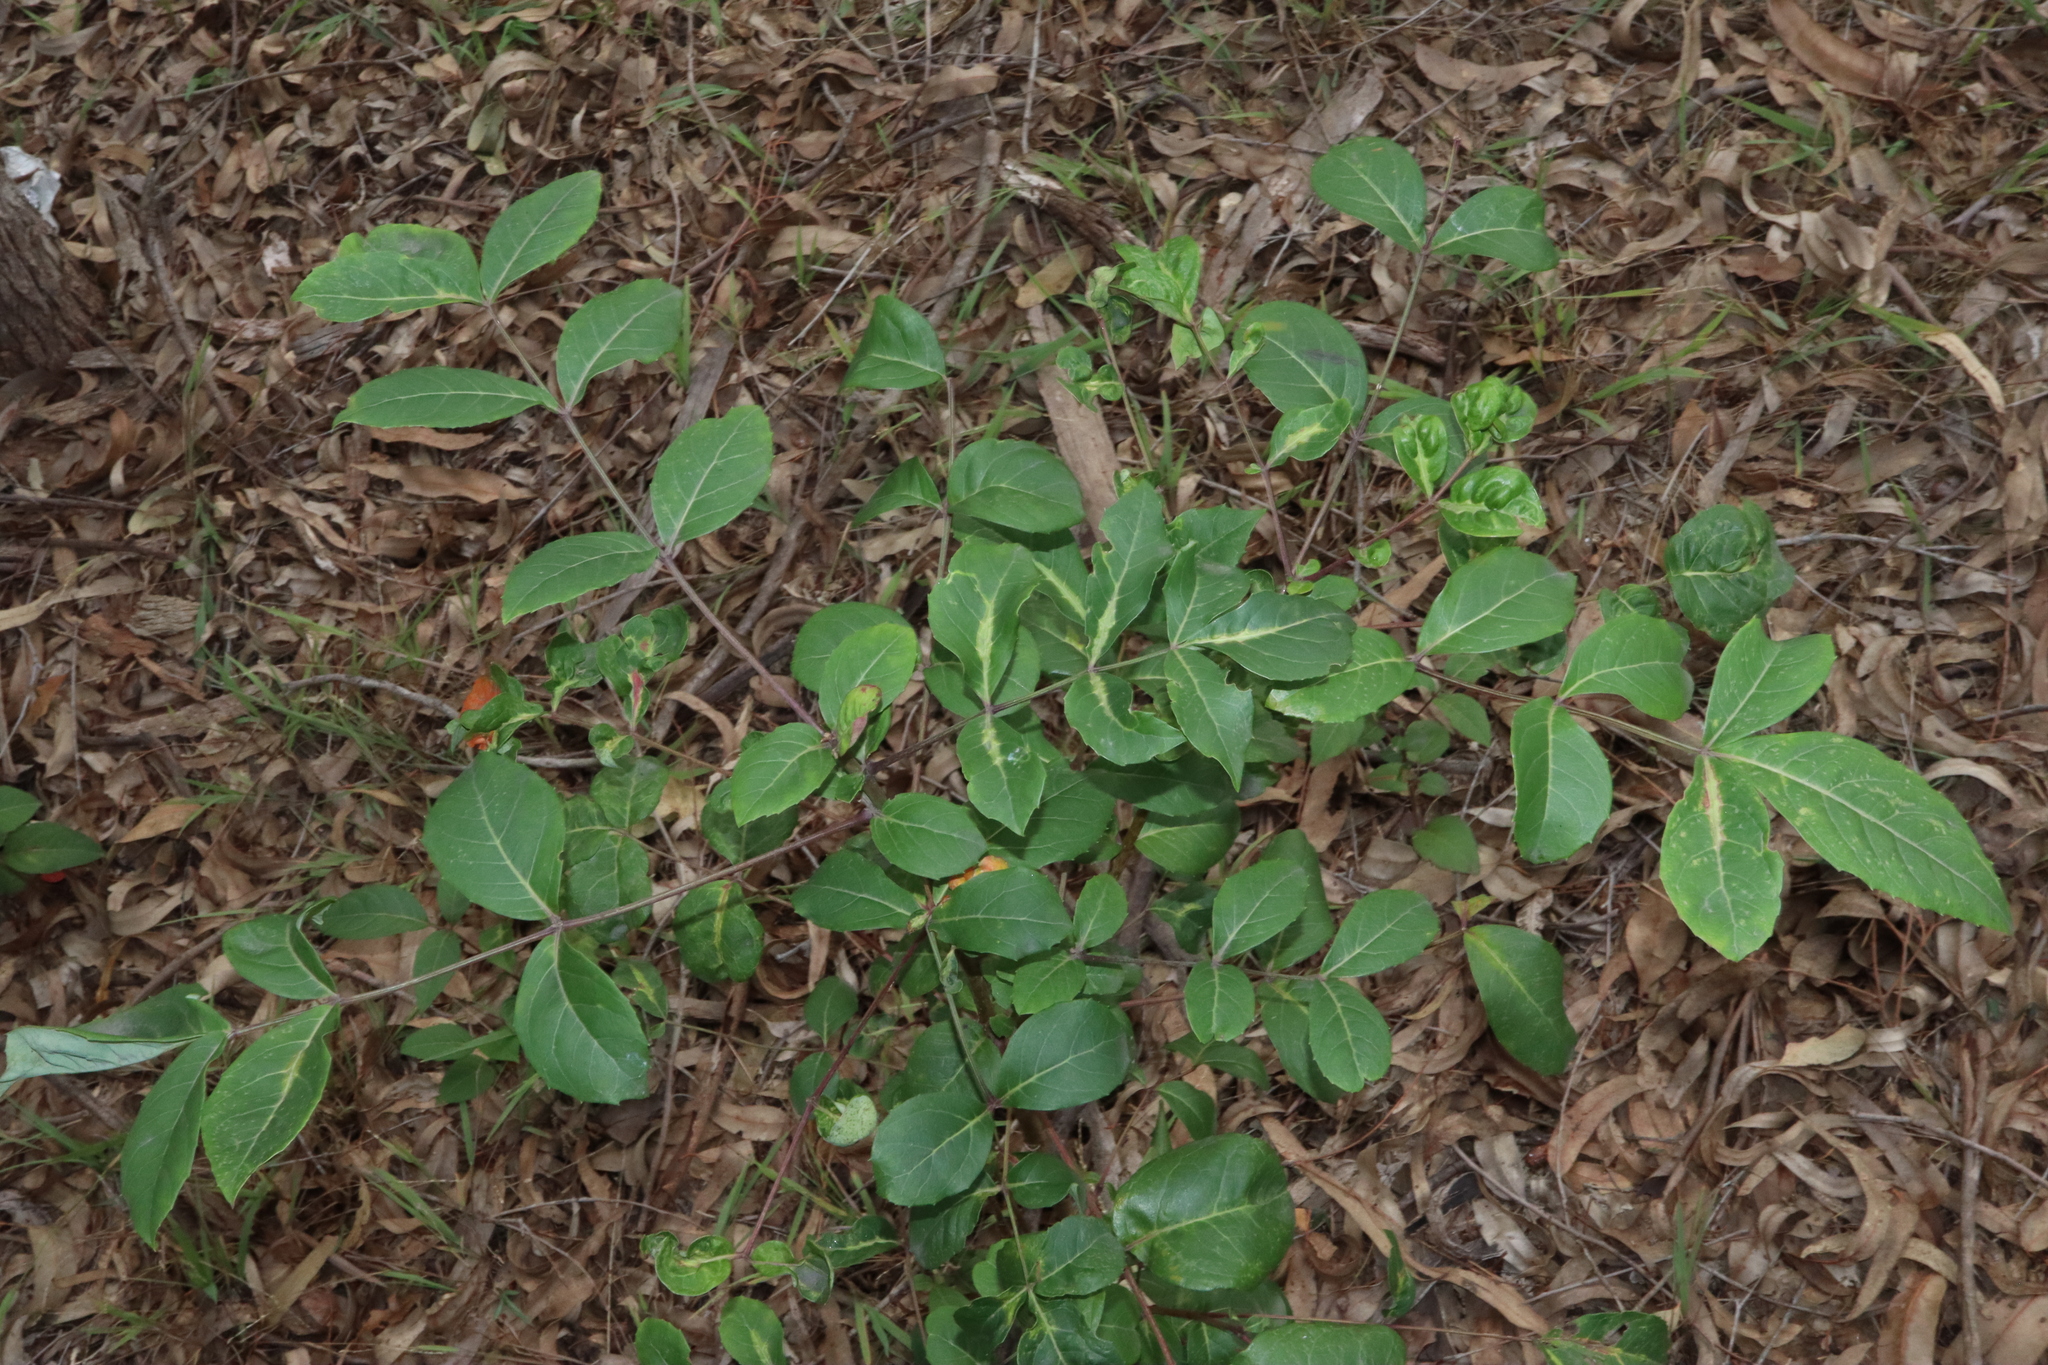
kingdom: Plantae
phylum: Tracheophyta
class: Magnoliopsida
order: Apiales
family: Araliaceae
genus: Polyscias
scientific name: Polyscias sambucifolia
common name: Elderberry-ash
